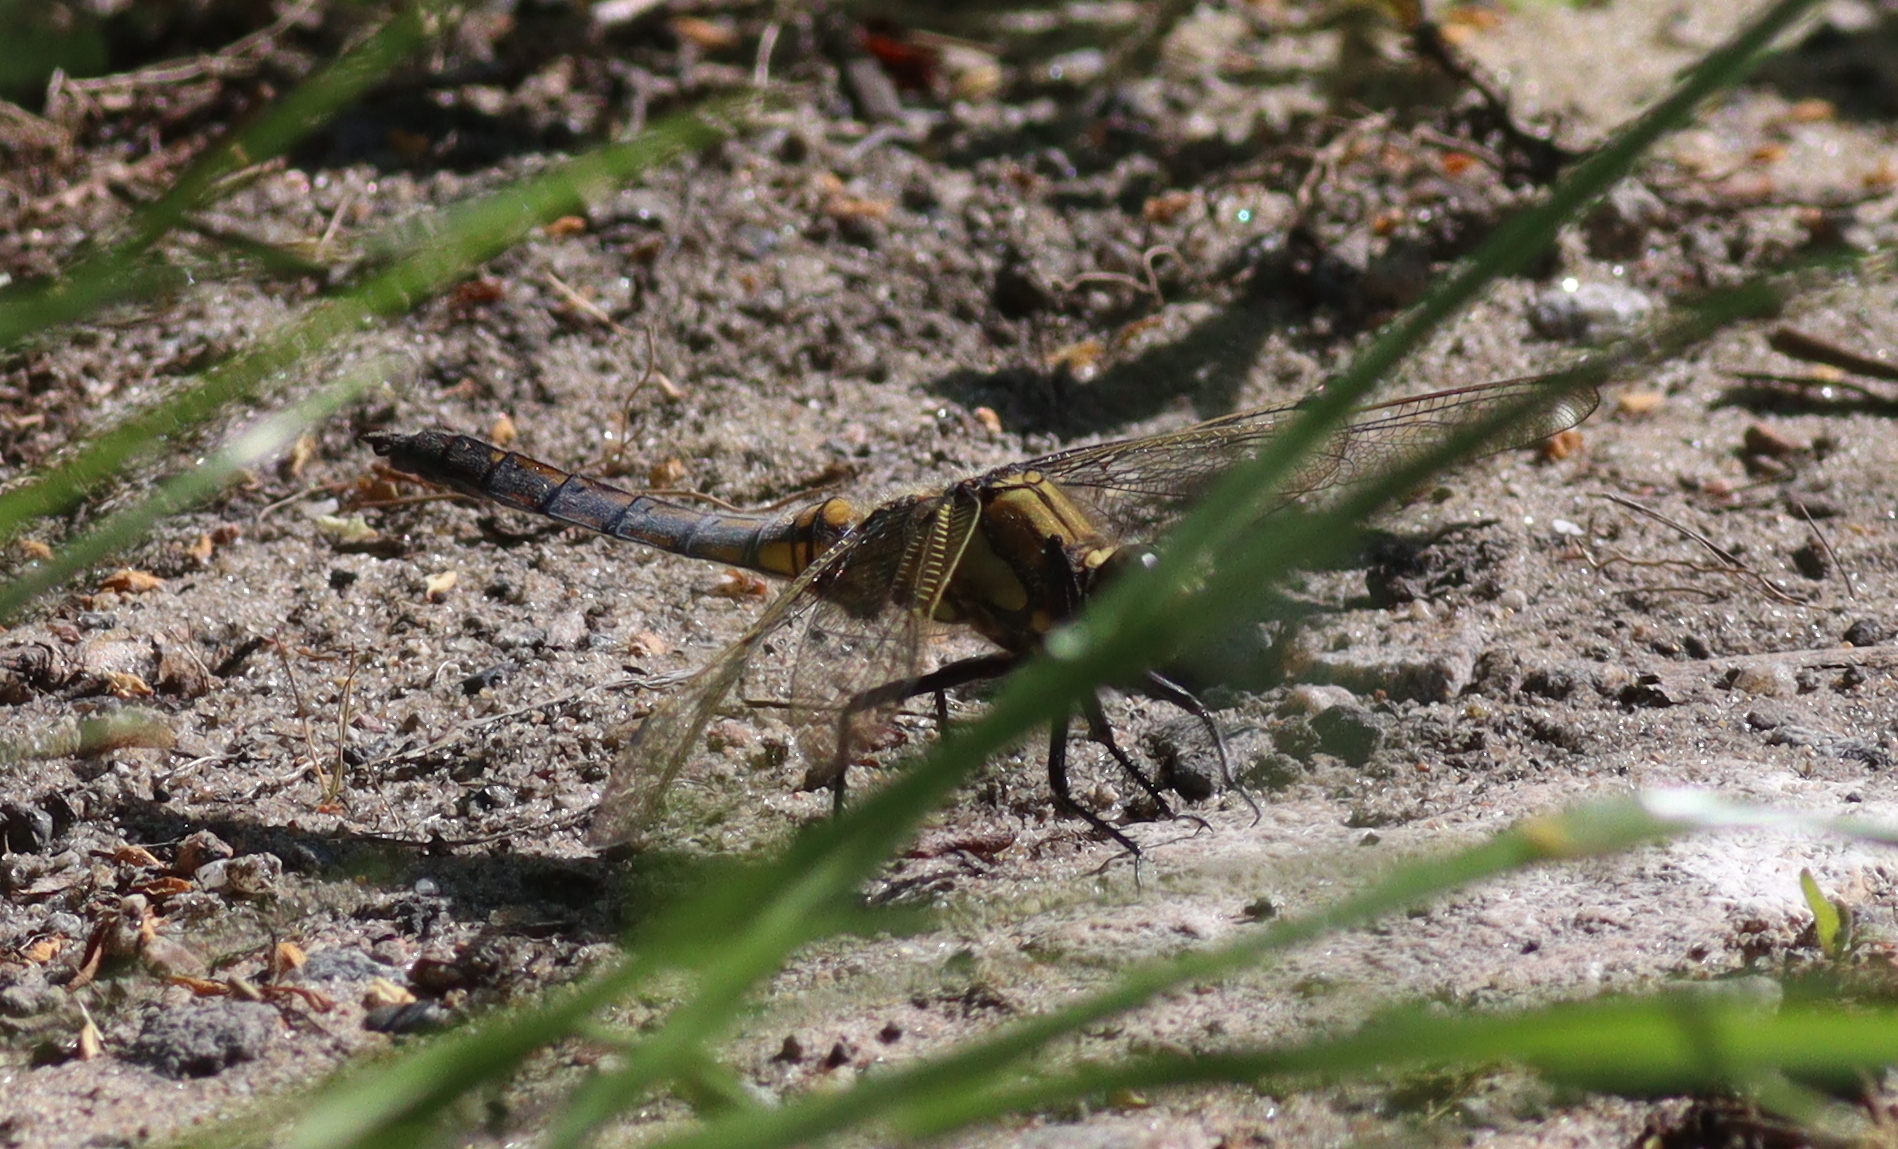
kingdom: Animalia
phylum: Arthropoda
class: Insecta
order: Odonata
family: Libellulidae
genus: Orthetrum
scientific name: Orthetrum cancellatum
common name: Black-tailed skimmer
